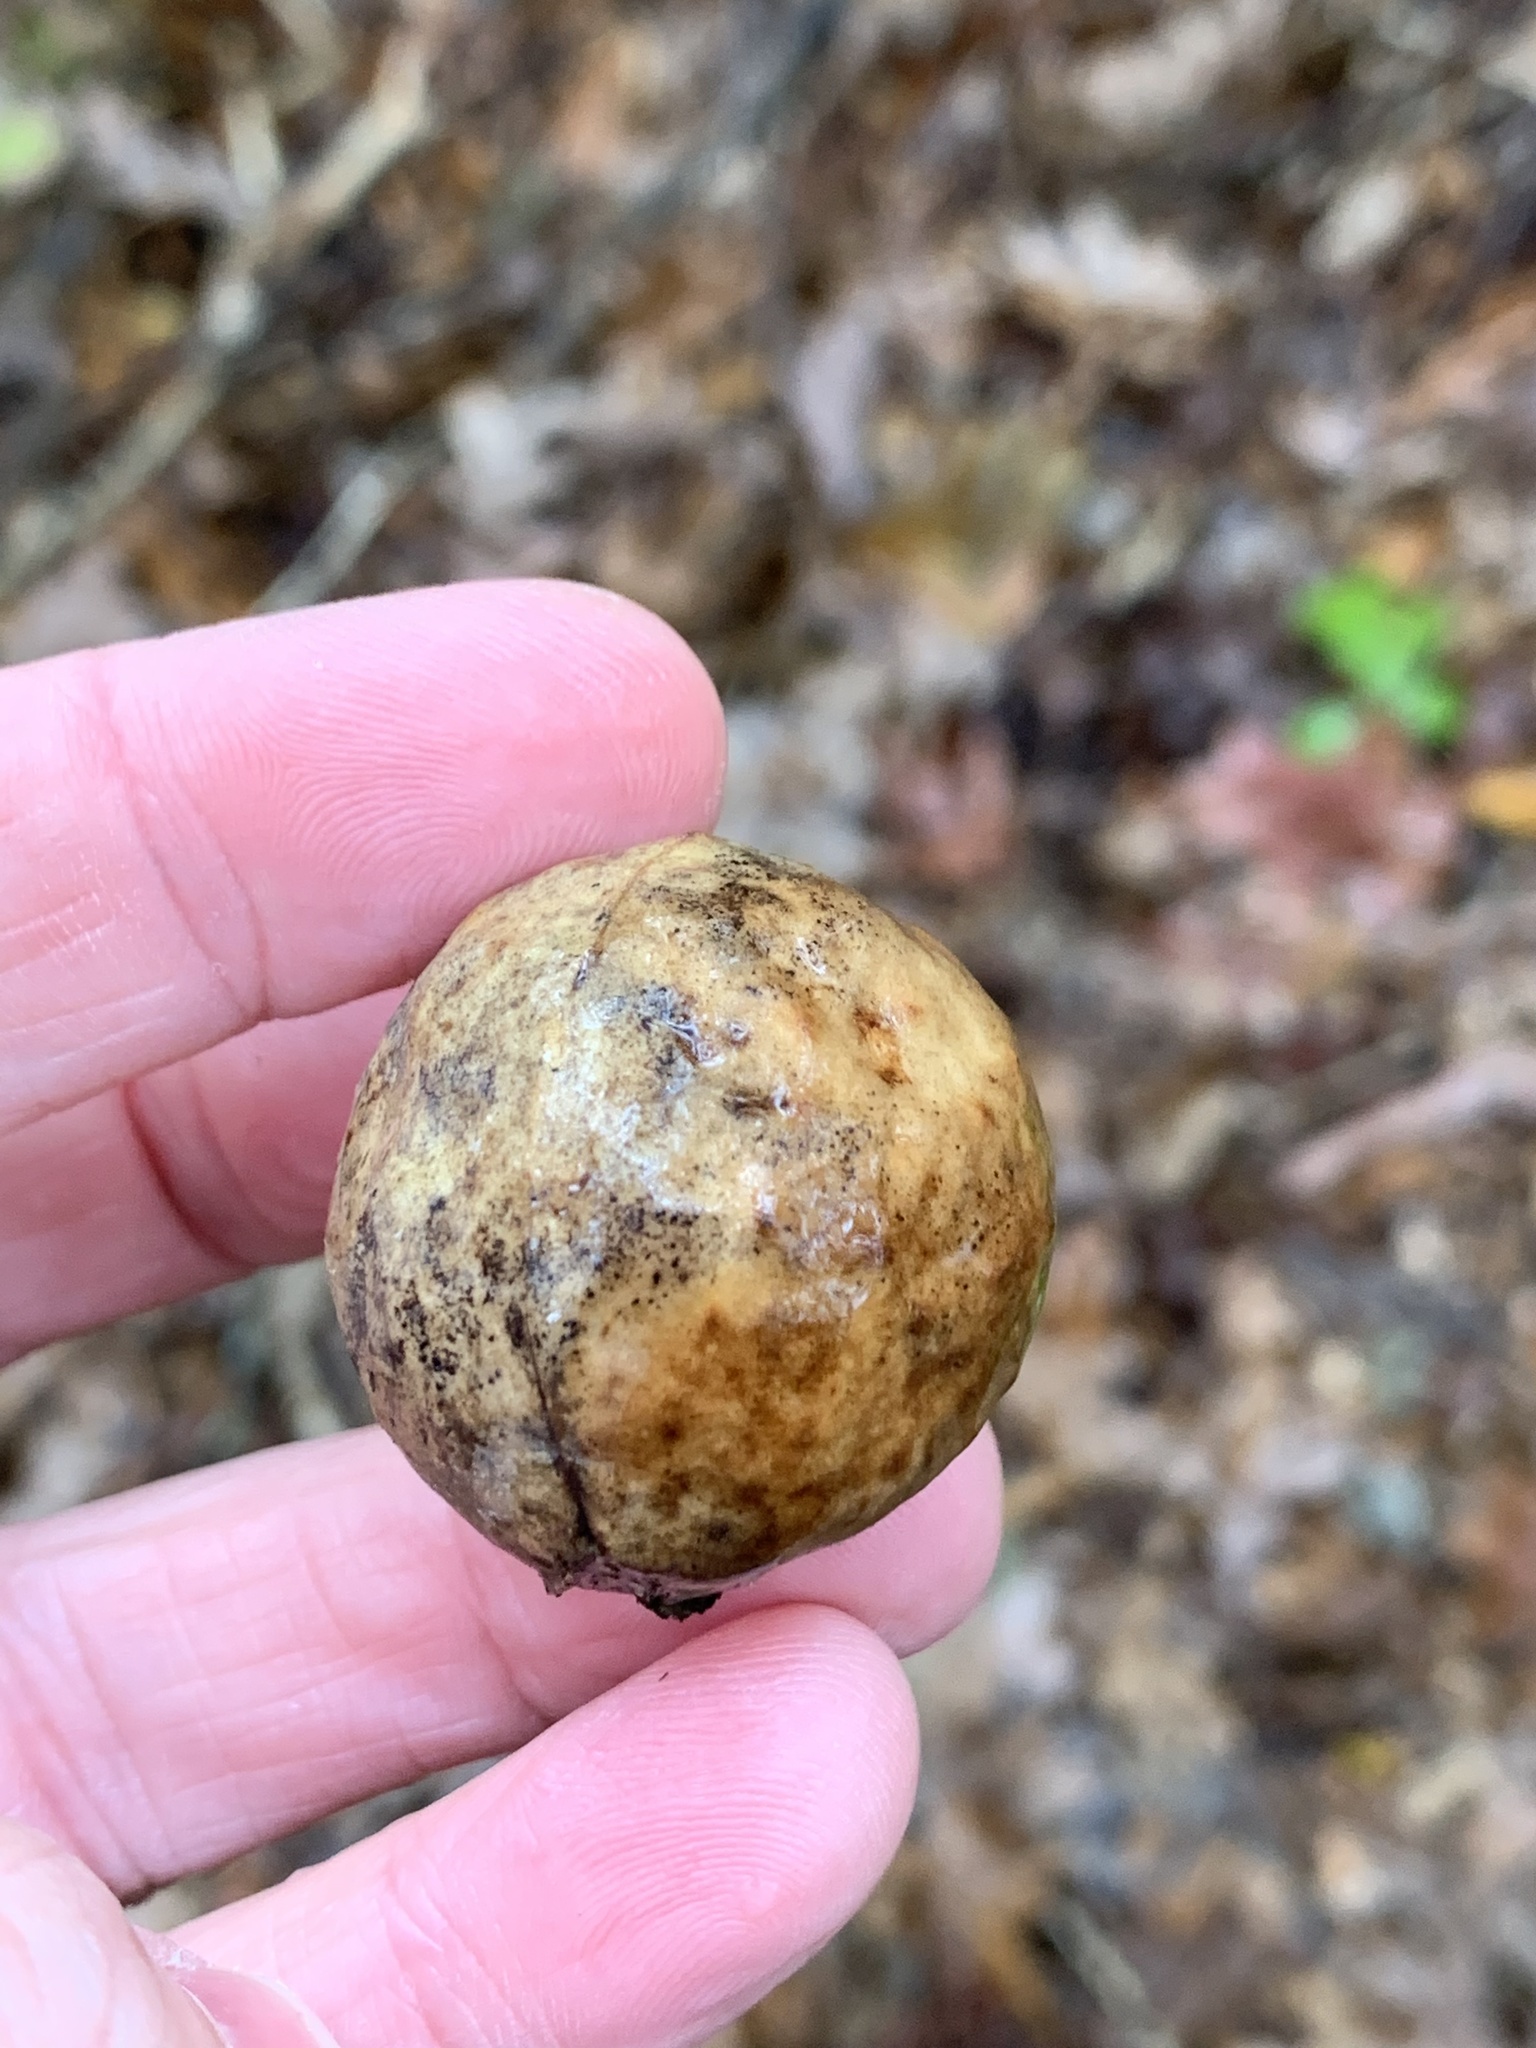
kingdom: Animalia
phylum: Arthropoda
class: Insecta
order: Hymenoptera
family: Cynipidae
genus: Amphibolips
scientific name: Amphibolips
